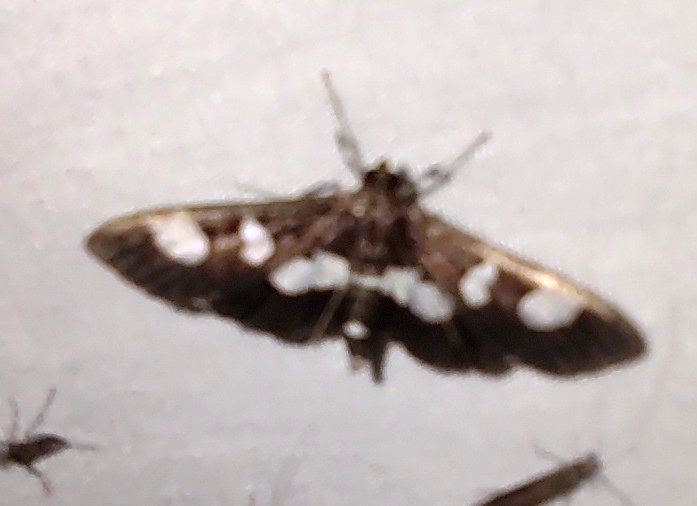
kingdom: Animalia
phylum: Arthropoda
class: Insecta
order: Lepidoptera
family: Crambidae
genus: Desmia
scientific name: Desmia
